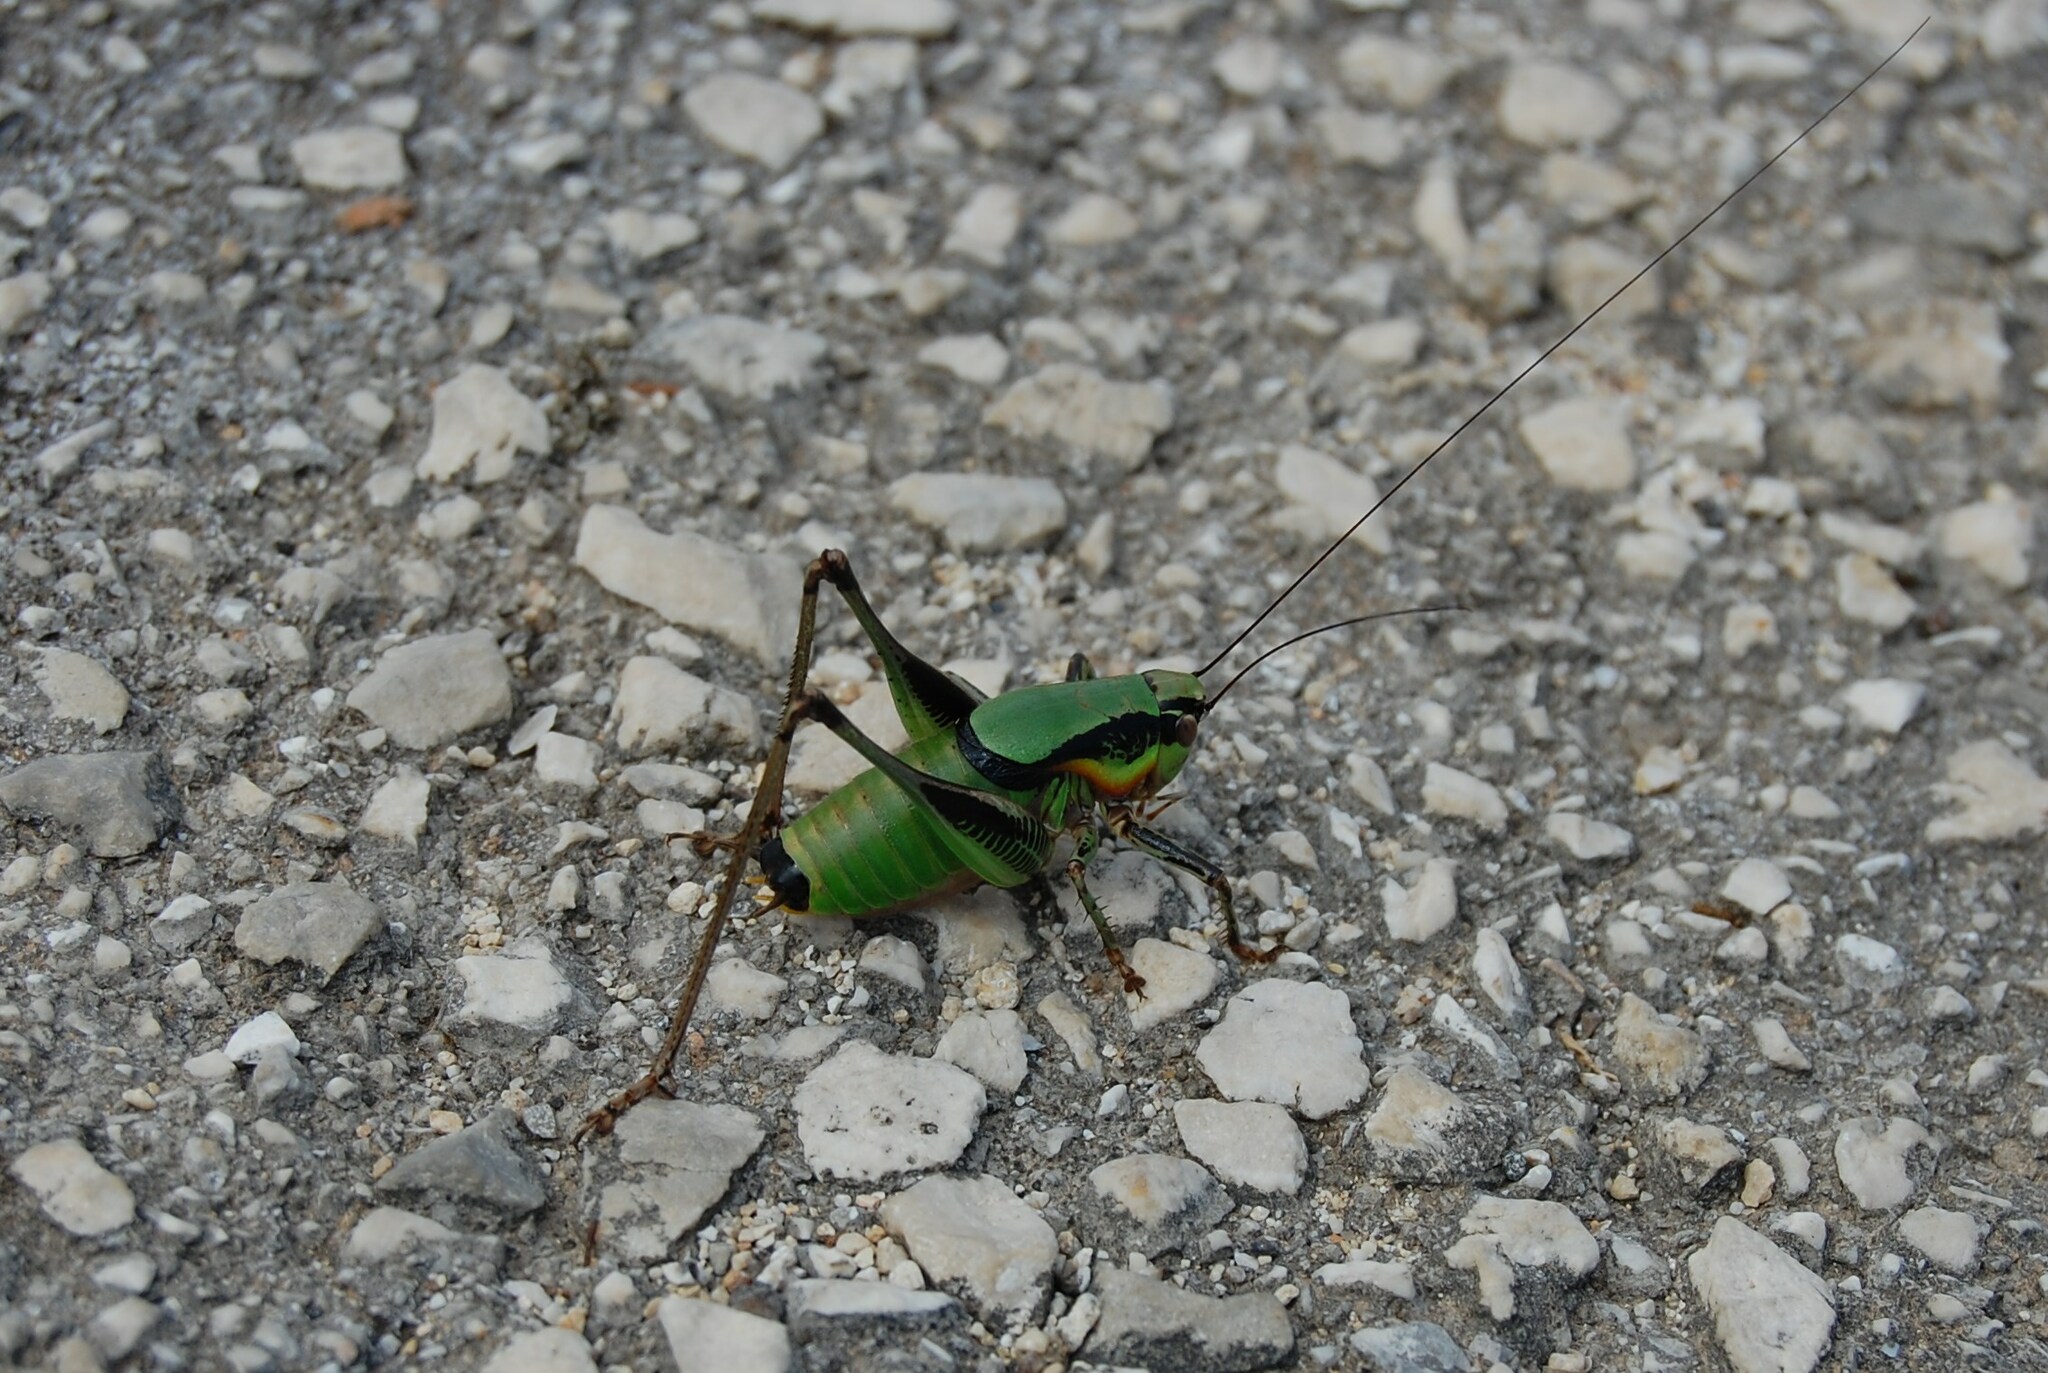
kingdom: Animalia
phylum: Arthropoda
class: Insecta
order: Orthoptera
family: Tettigoniidae
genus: Eupholidoptera
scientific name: Eupholidoptera garganica
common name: Gargano marbled bush-cricket
